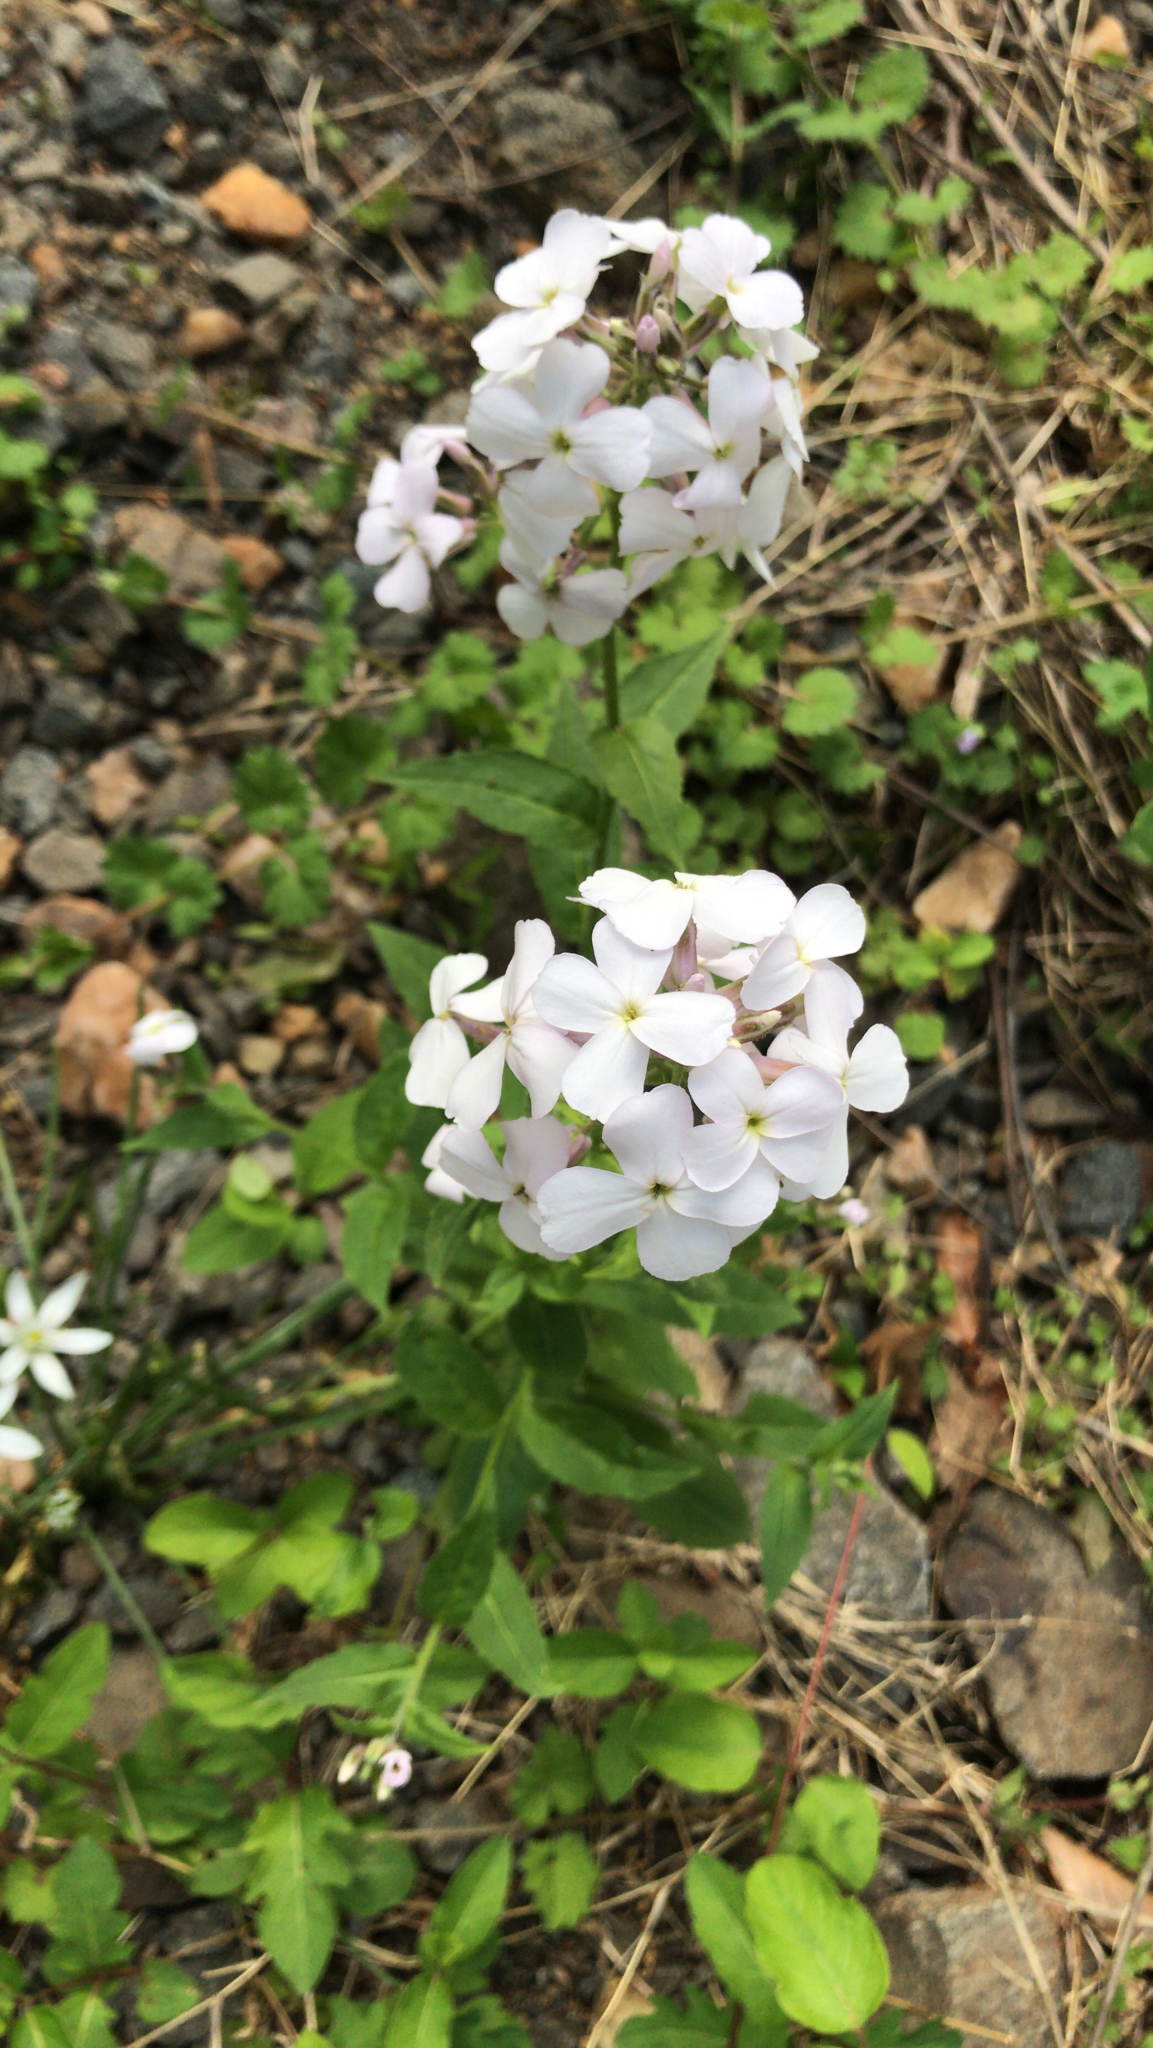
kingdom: Plantae
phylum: Tracheophyta
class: Magnoliopsida
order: Brassicales
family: Brassicaceae
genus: Hesperis
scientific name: Hesperis matronalis
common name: Dame's-violet
